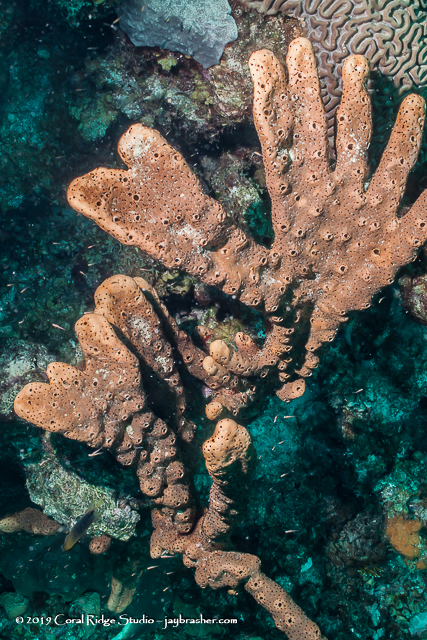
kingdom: Animalia
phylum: Porifera
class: Demospongiae
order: Agelasida
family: Agelasidae
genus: Agelas
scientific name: Agelas conifera
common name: Brown tube sponge
